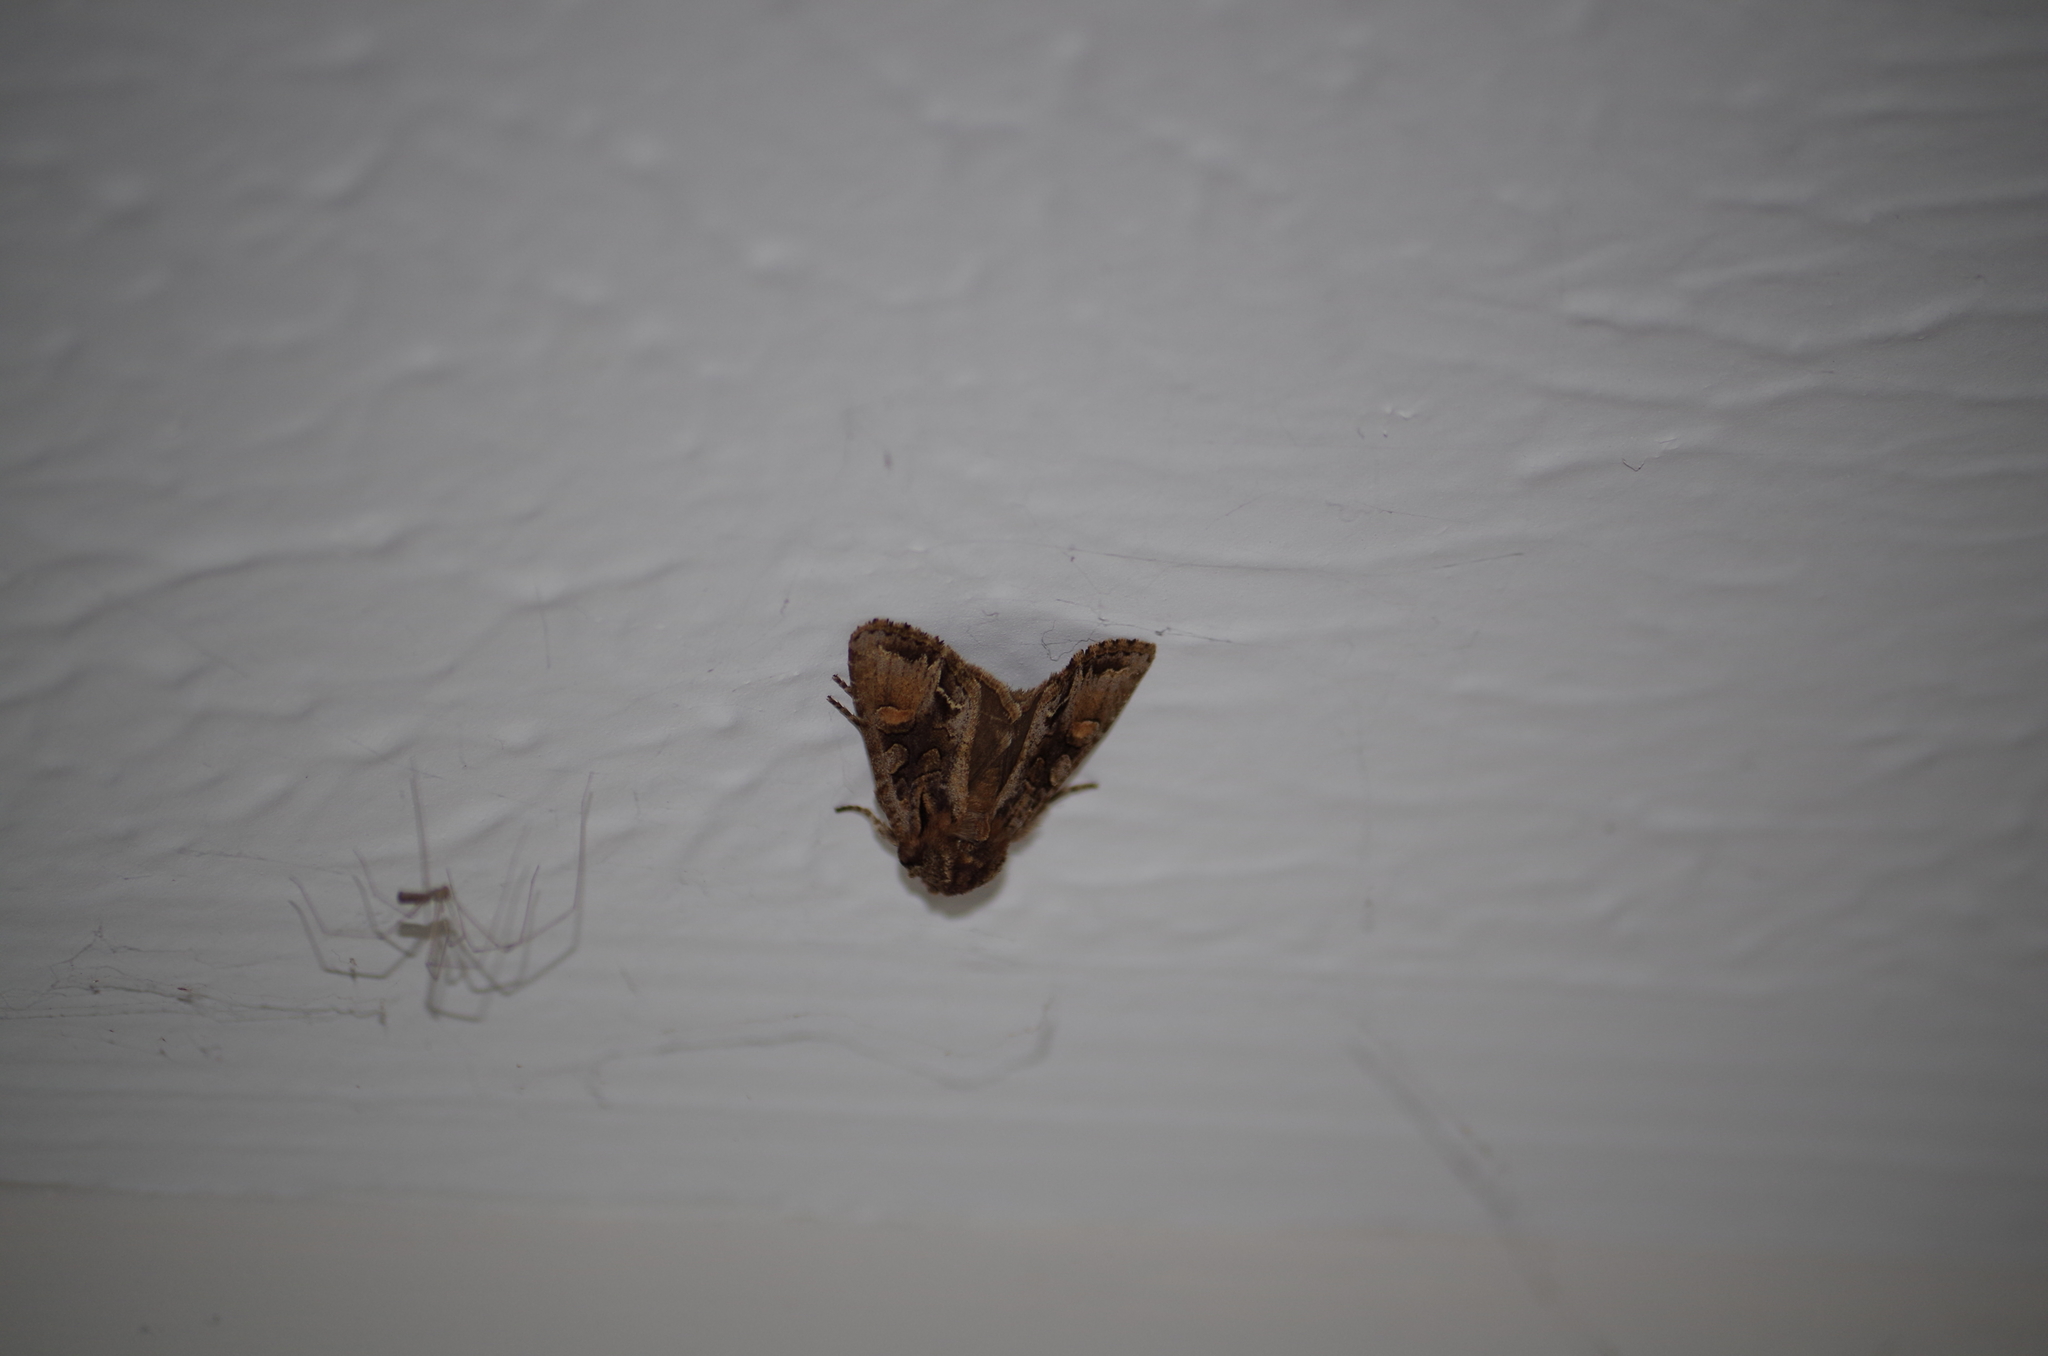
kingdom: Animalia
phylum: Arthropoda
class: Insecta
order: Lepidoptera
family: Noctuidae
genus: Ichneutica
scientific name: Ichneutica
